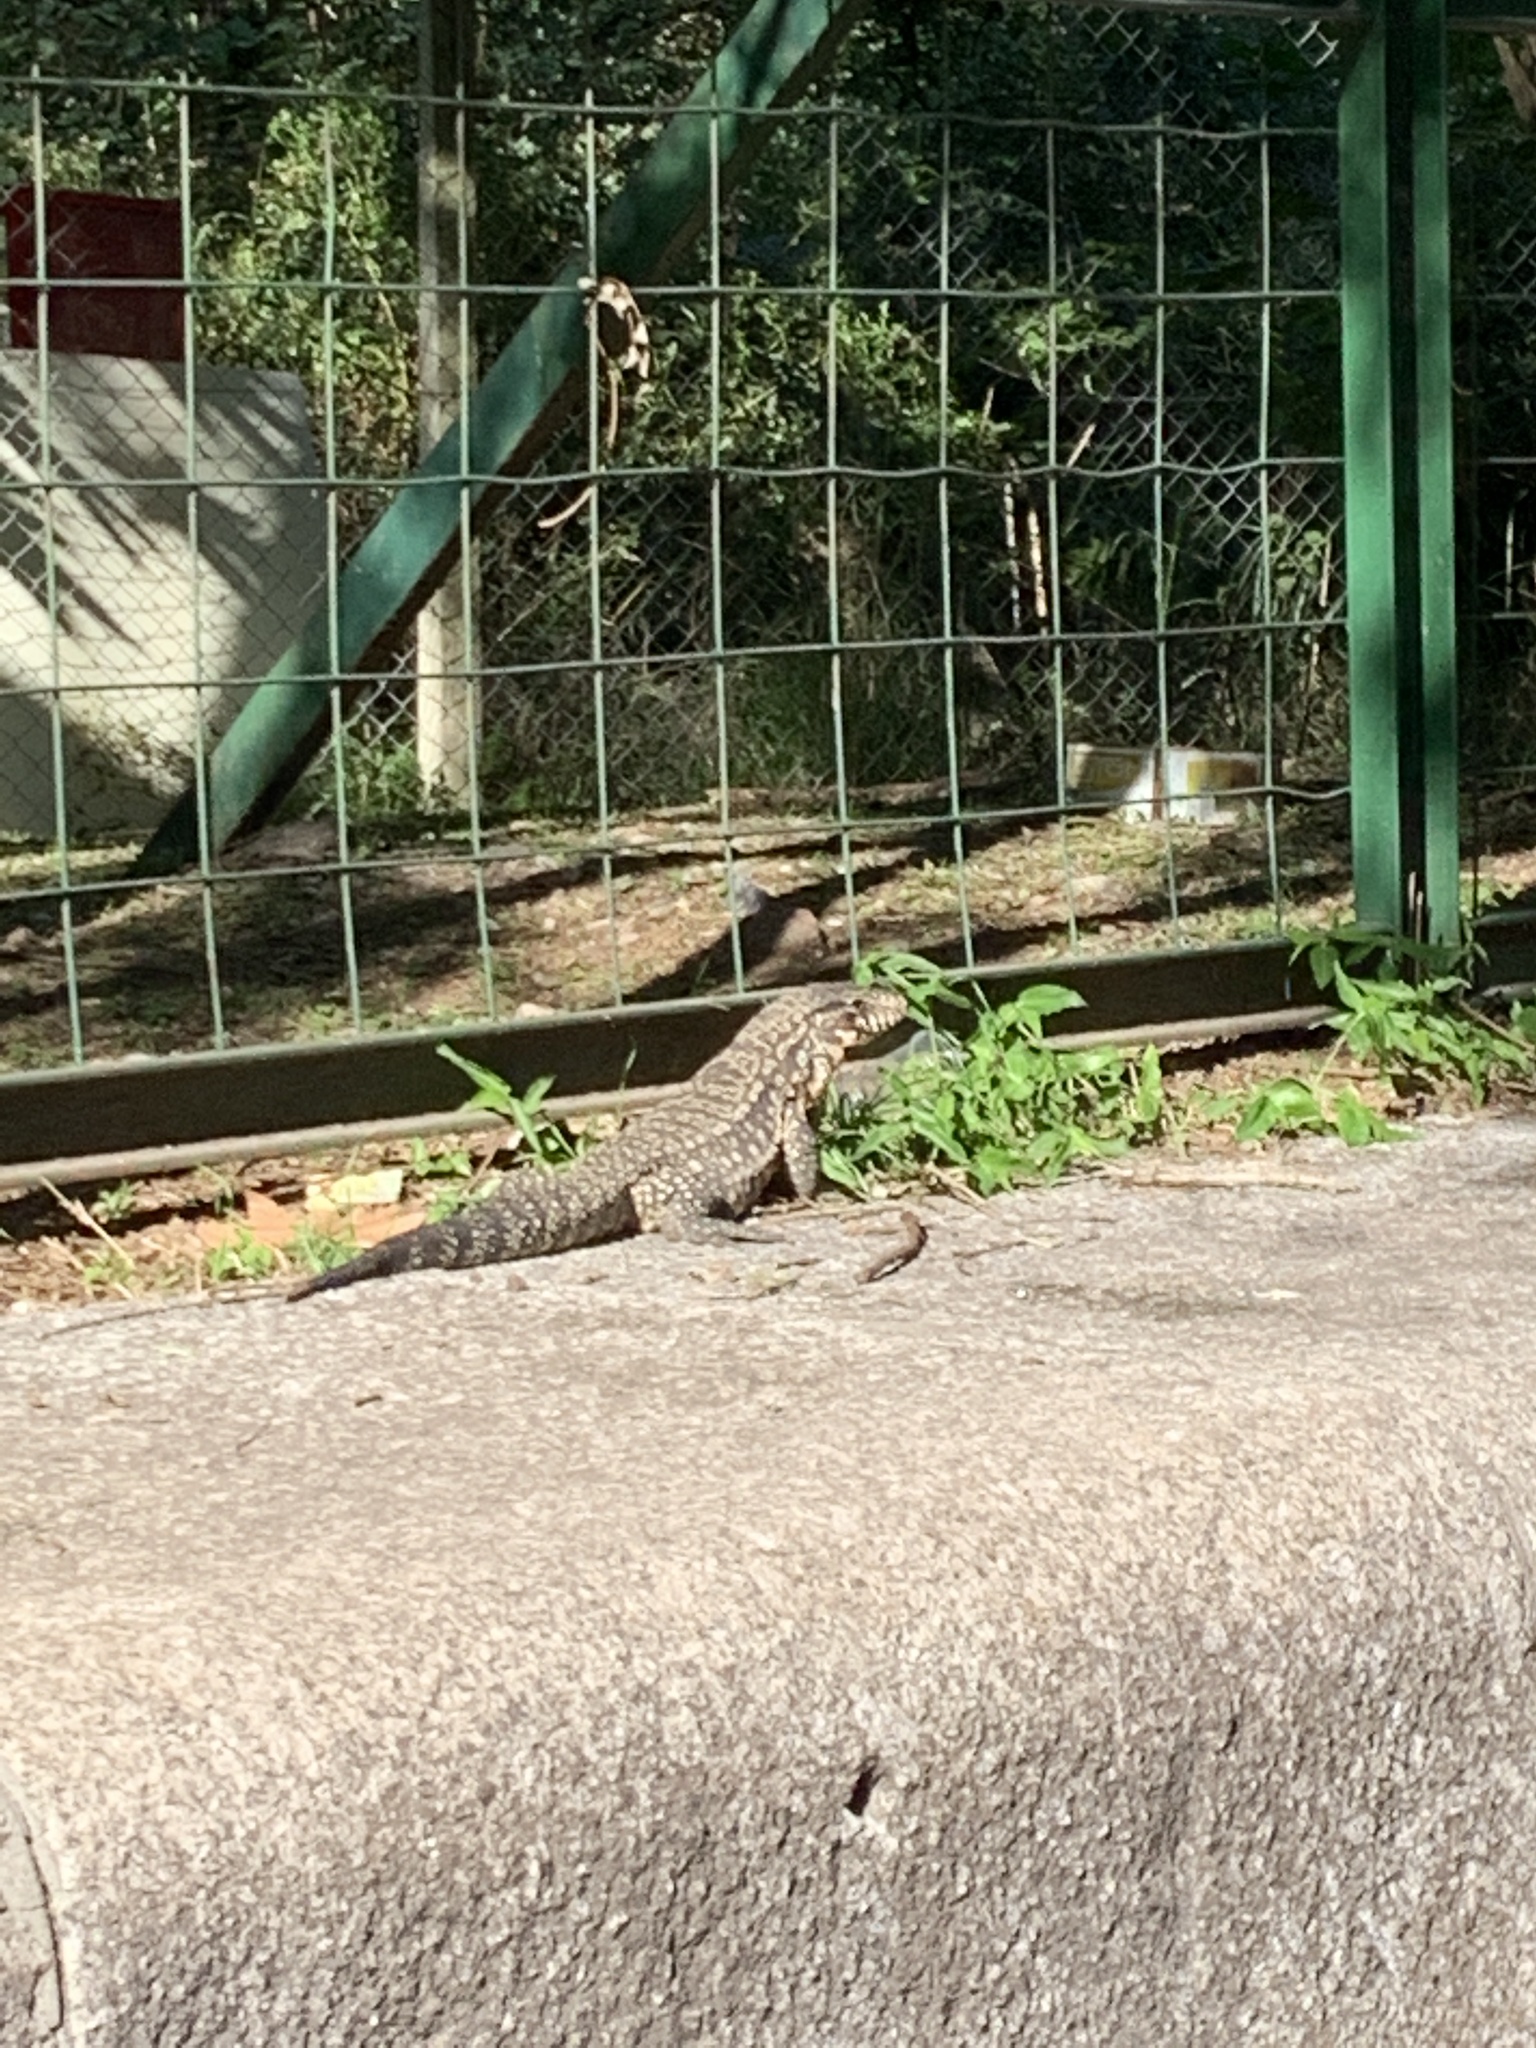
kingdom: Animalia
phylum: Chordata
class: Squamata
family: Teiidae
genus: Salvator
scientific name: Salvator merianae
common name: Argentine black and white tegu
